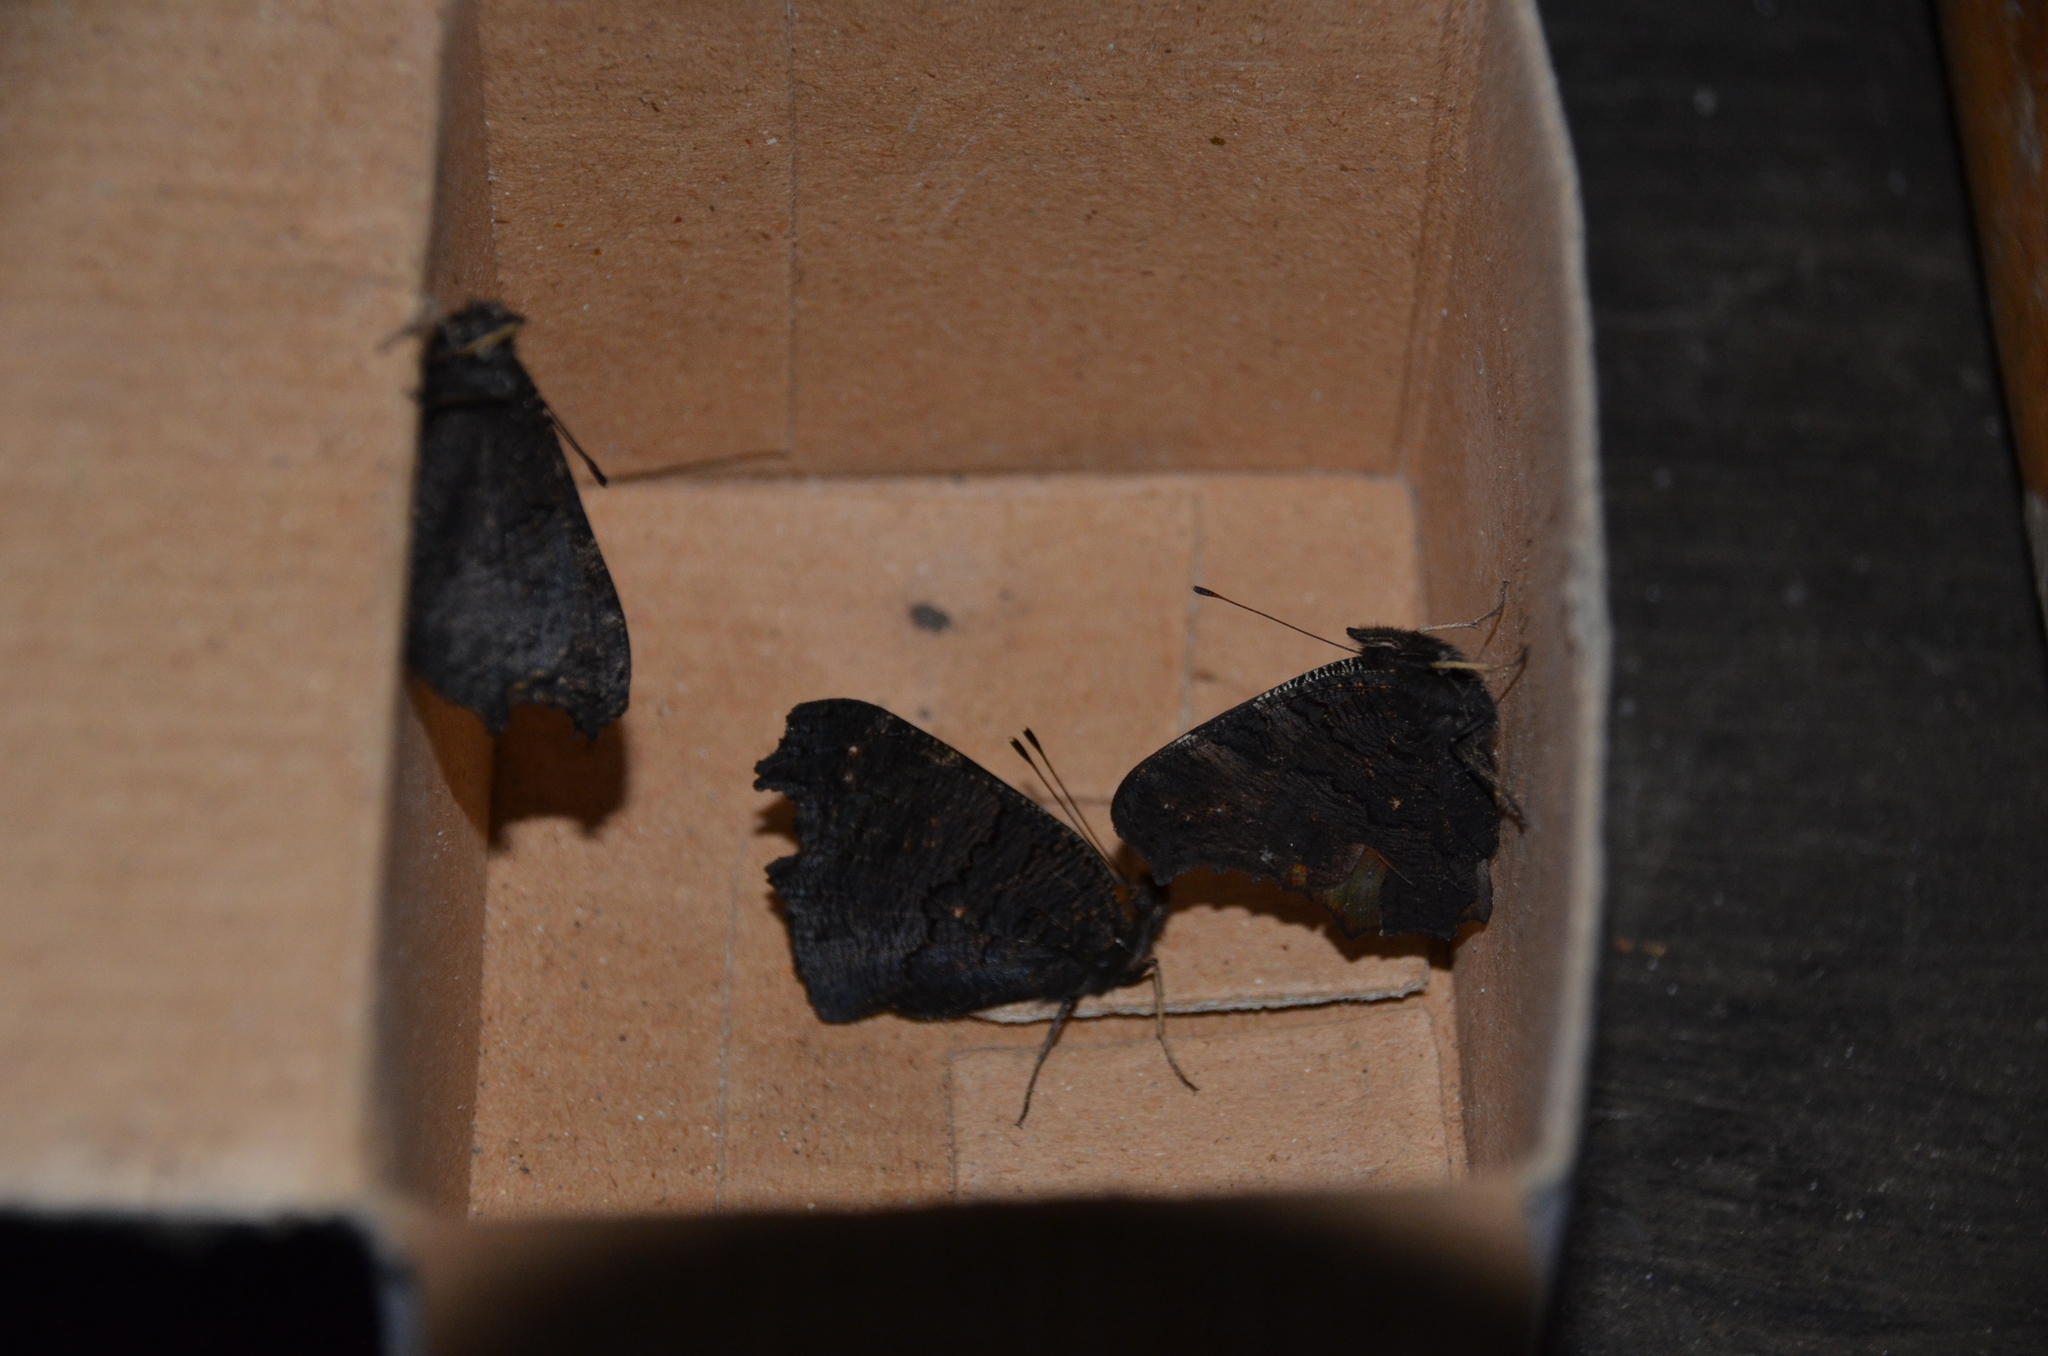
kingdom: Animalia
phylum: Arthropoda
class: Insecta
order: Lepidoptera
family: Nymphalidae
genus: Aglais
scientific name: Aglais io
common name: Peacock
